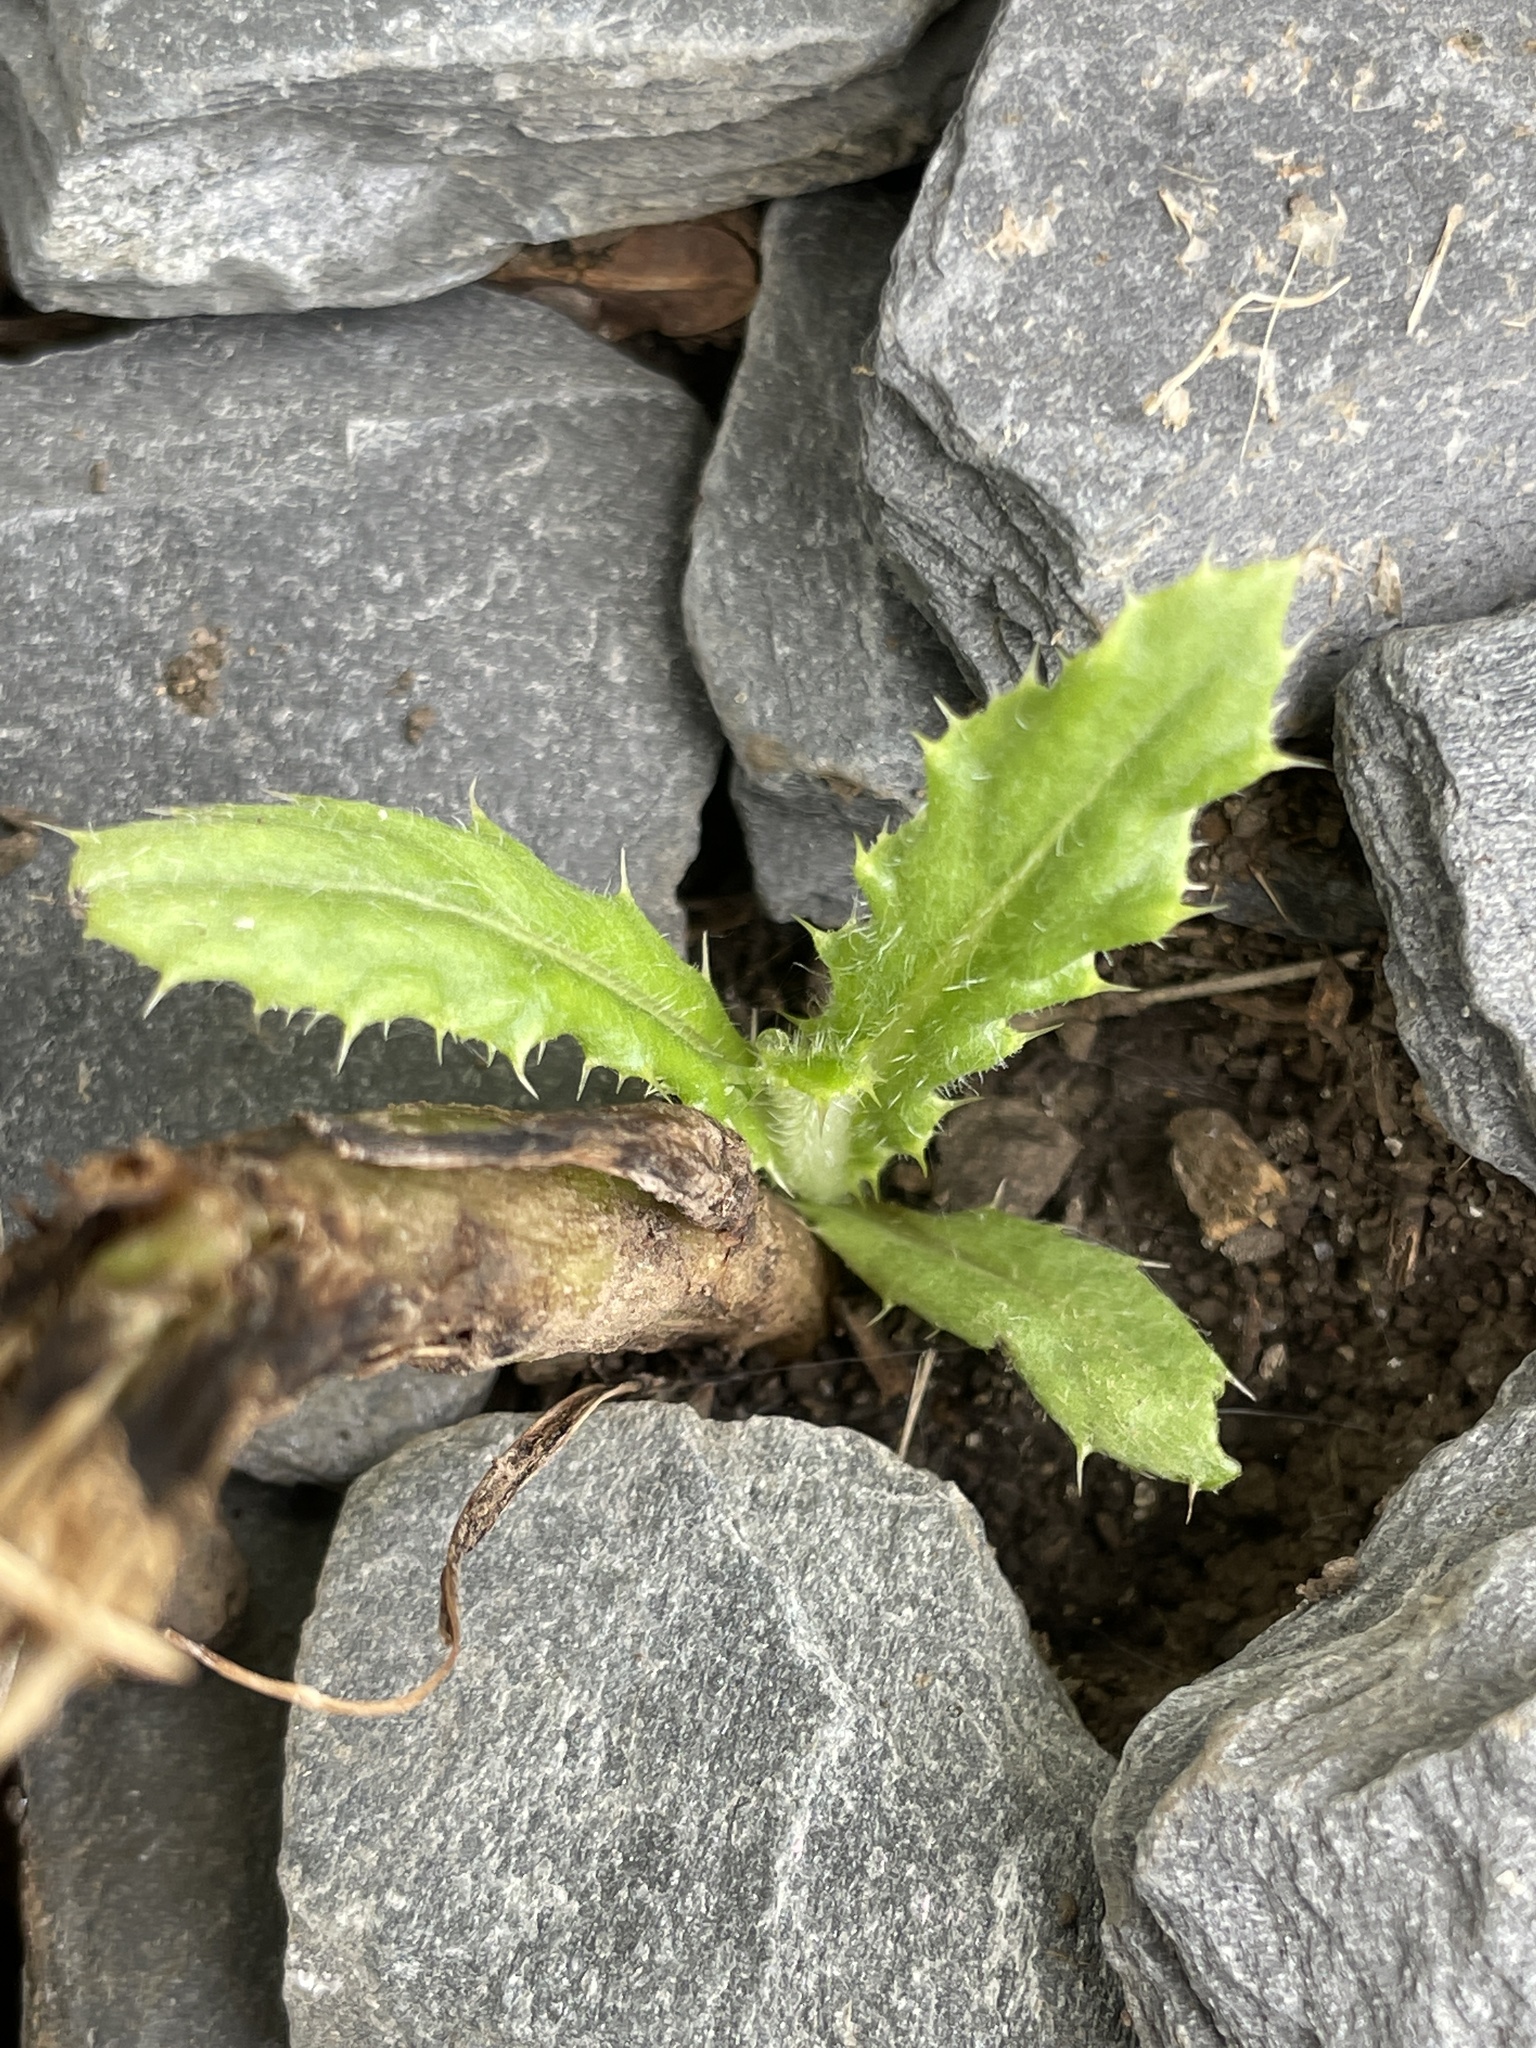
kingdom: Plantae
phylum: Tracheophyta
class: Magnoliopsida
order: Asterales
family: Asteraceae
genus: Cirsium
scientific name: Cirsium arvense
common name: Creeping thistle
